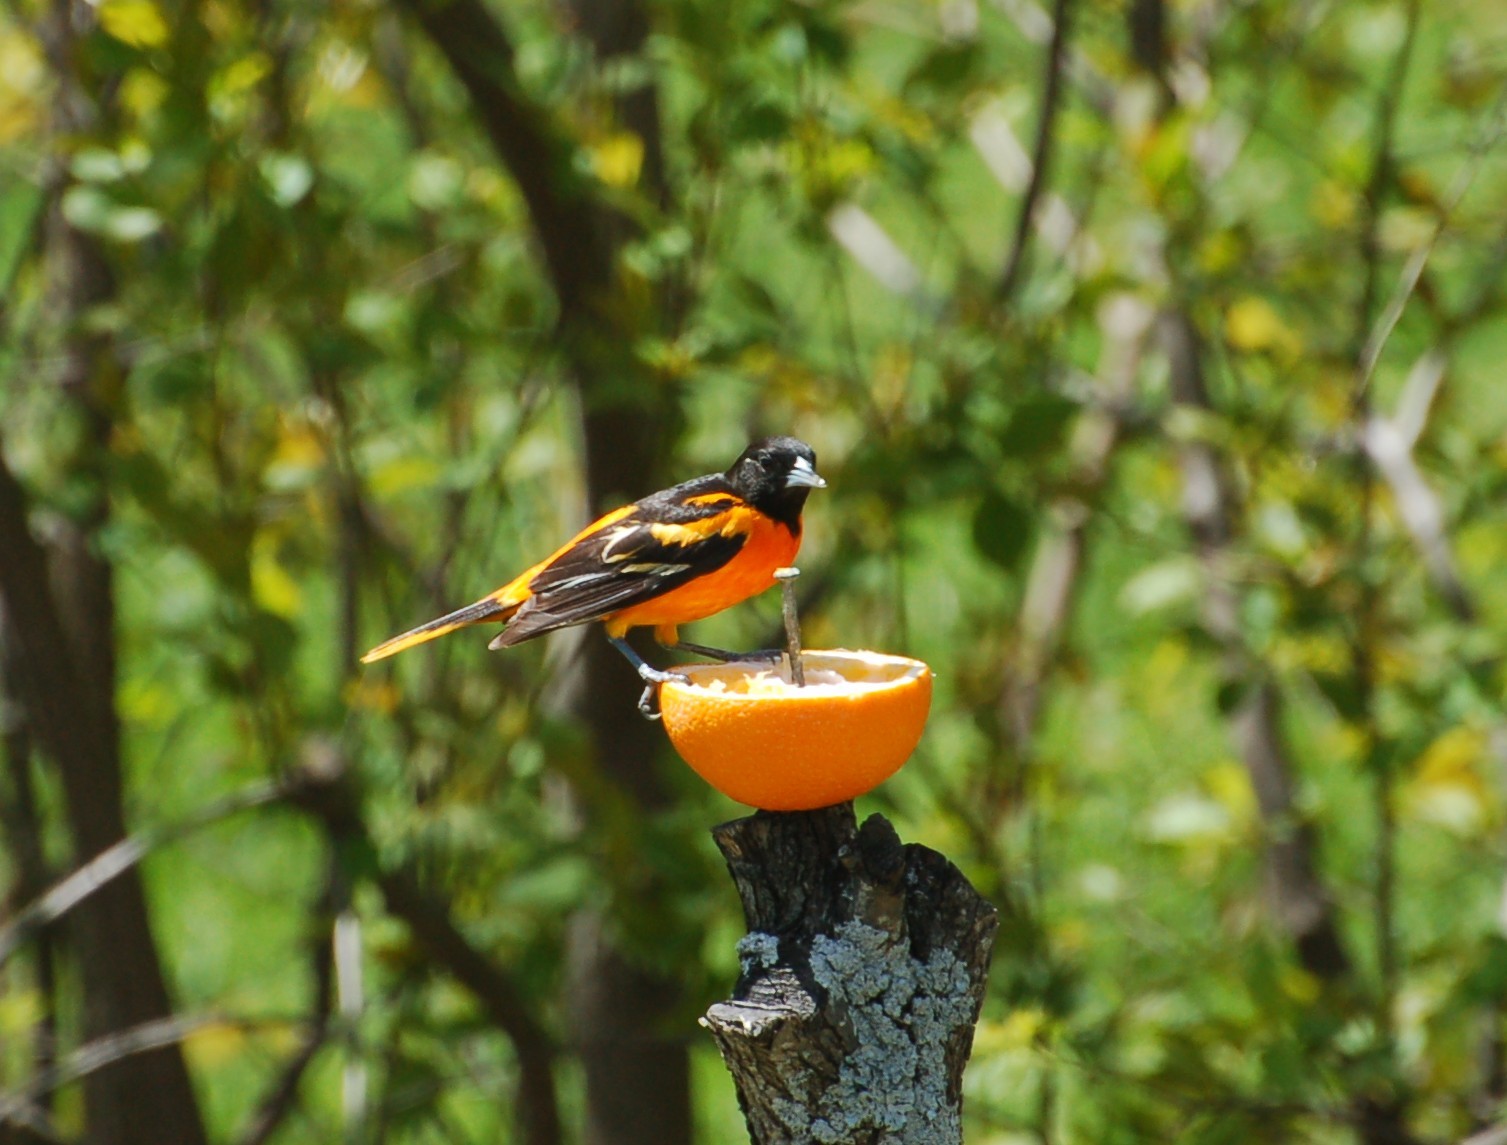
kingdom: Animalia
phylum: Chordata
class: Aves
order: Passeriformes
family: Icteridae
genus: Icterus
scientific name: Icterus galbula
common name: Baltimore oriole
